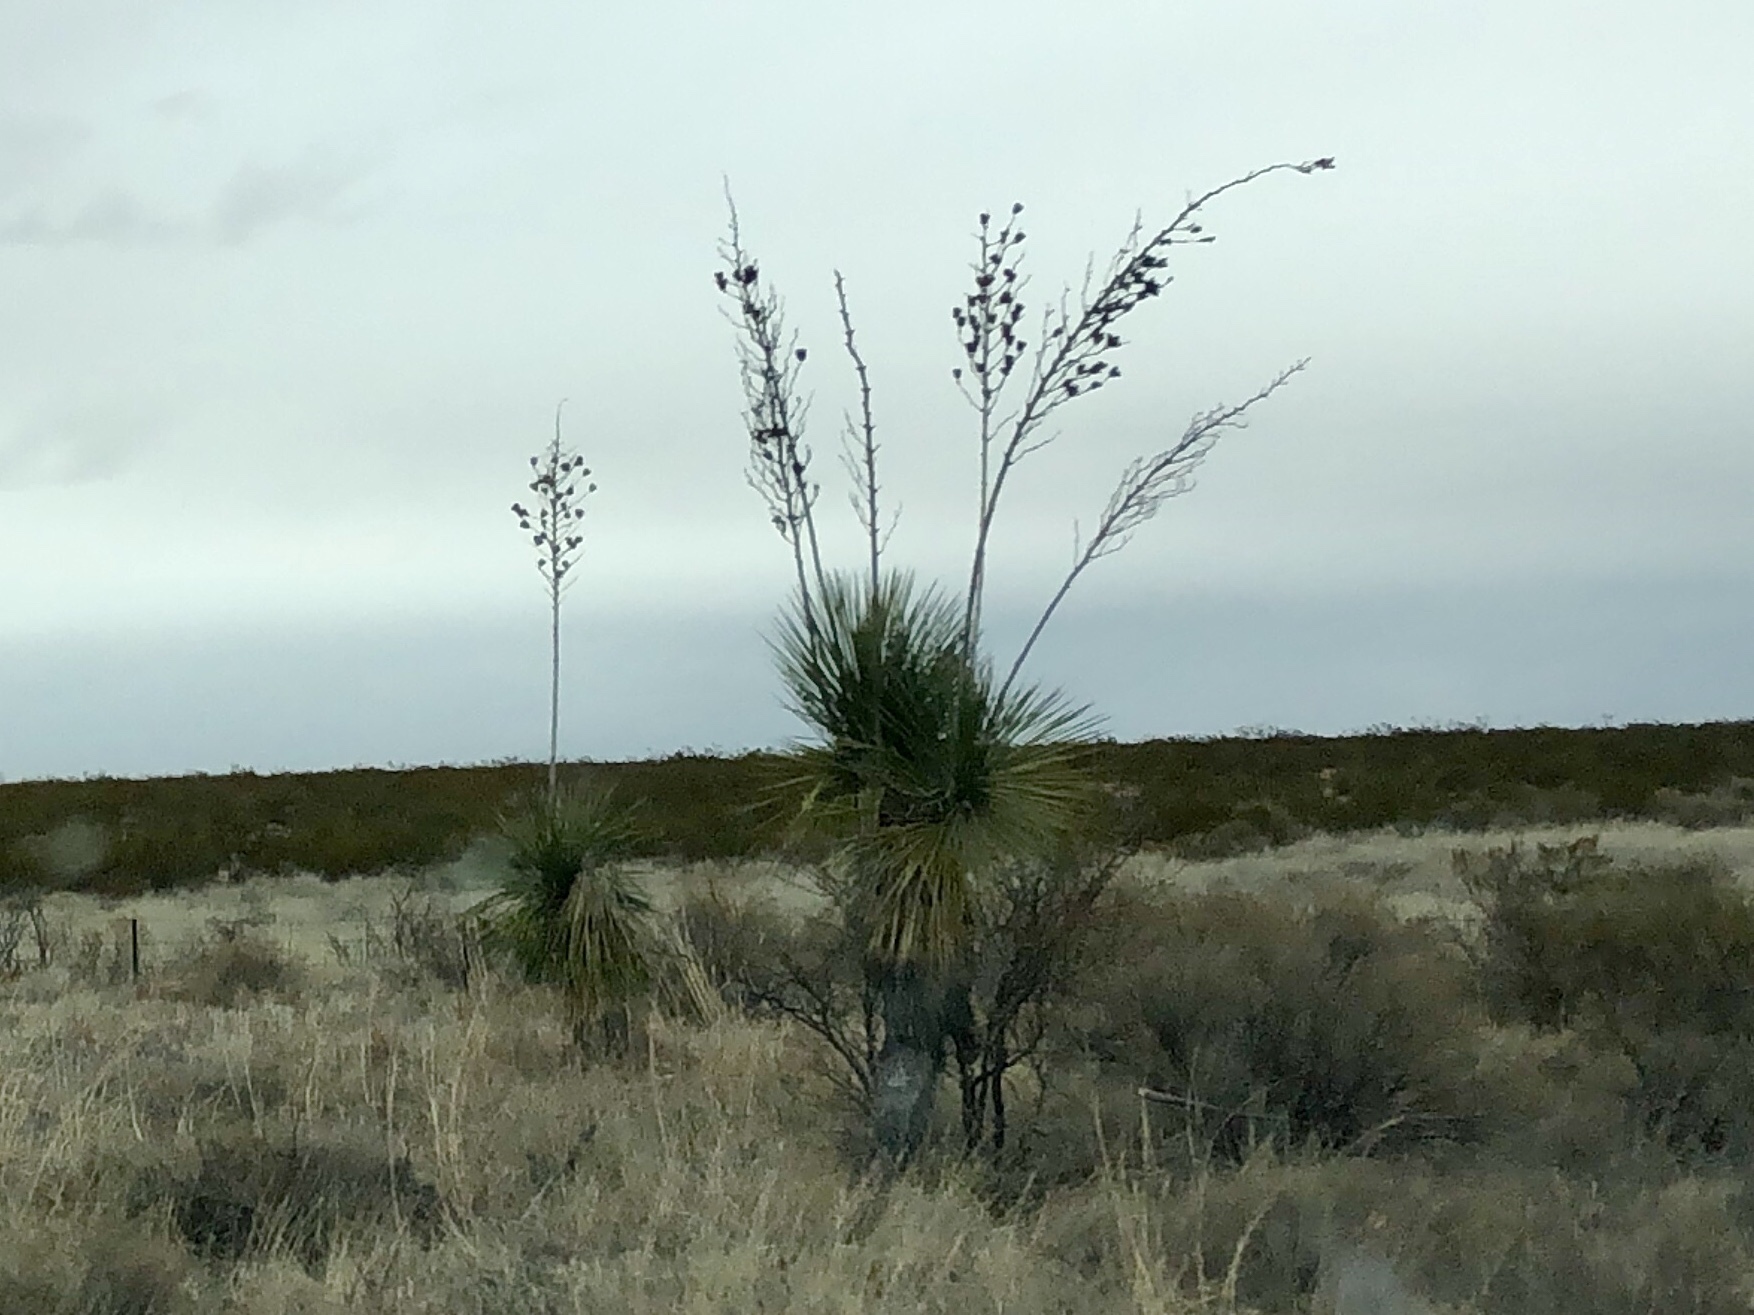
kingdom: Plantae
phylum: Tracheophyta
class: Liliopsida
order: Asparagales
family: Asparagaceae
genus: Yucca
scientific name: Yucca elata
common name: Palmella
